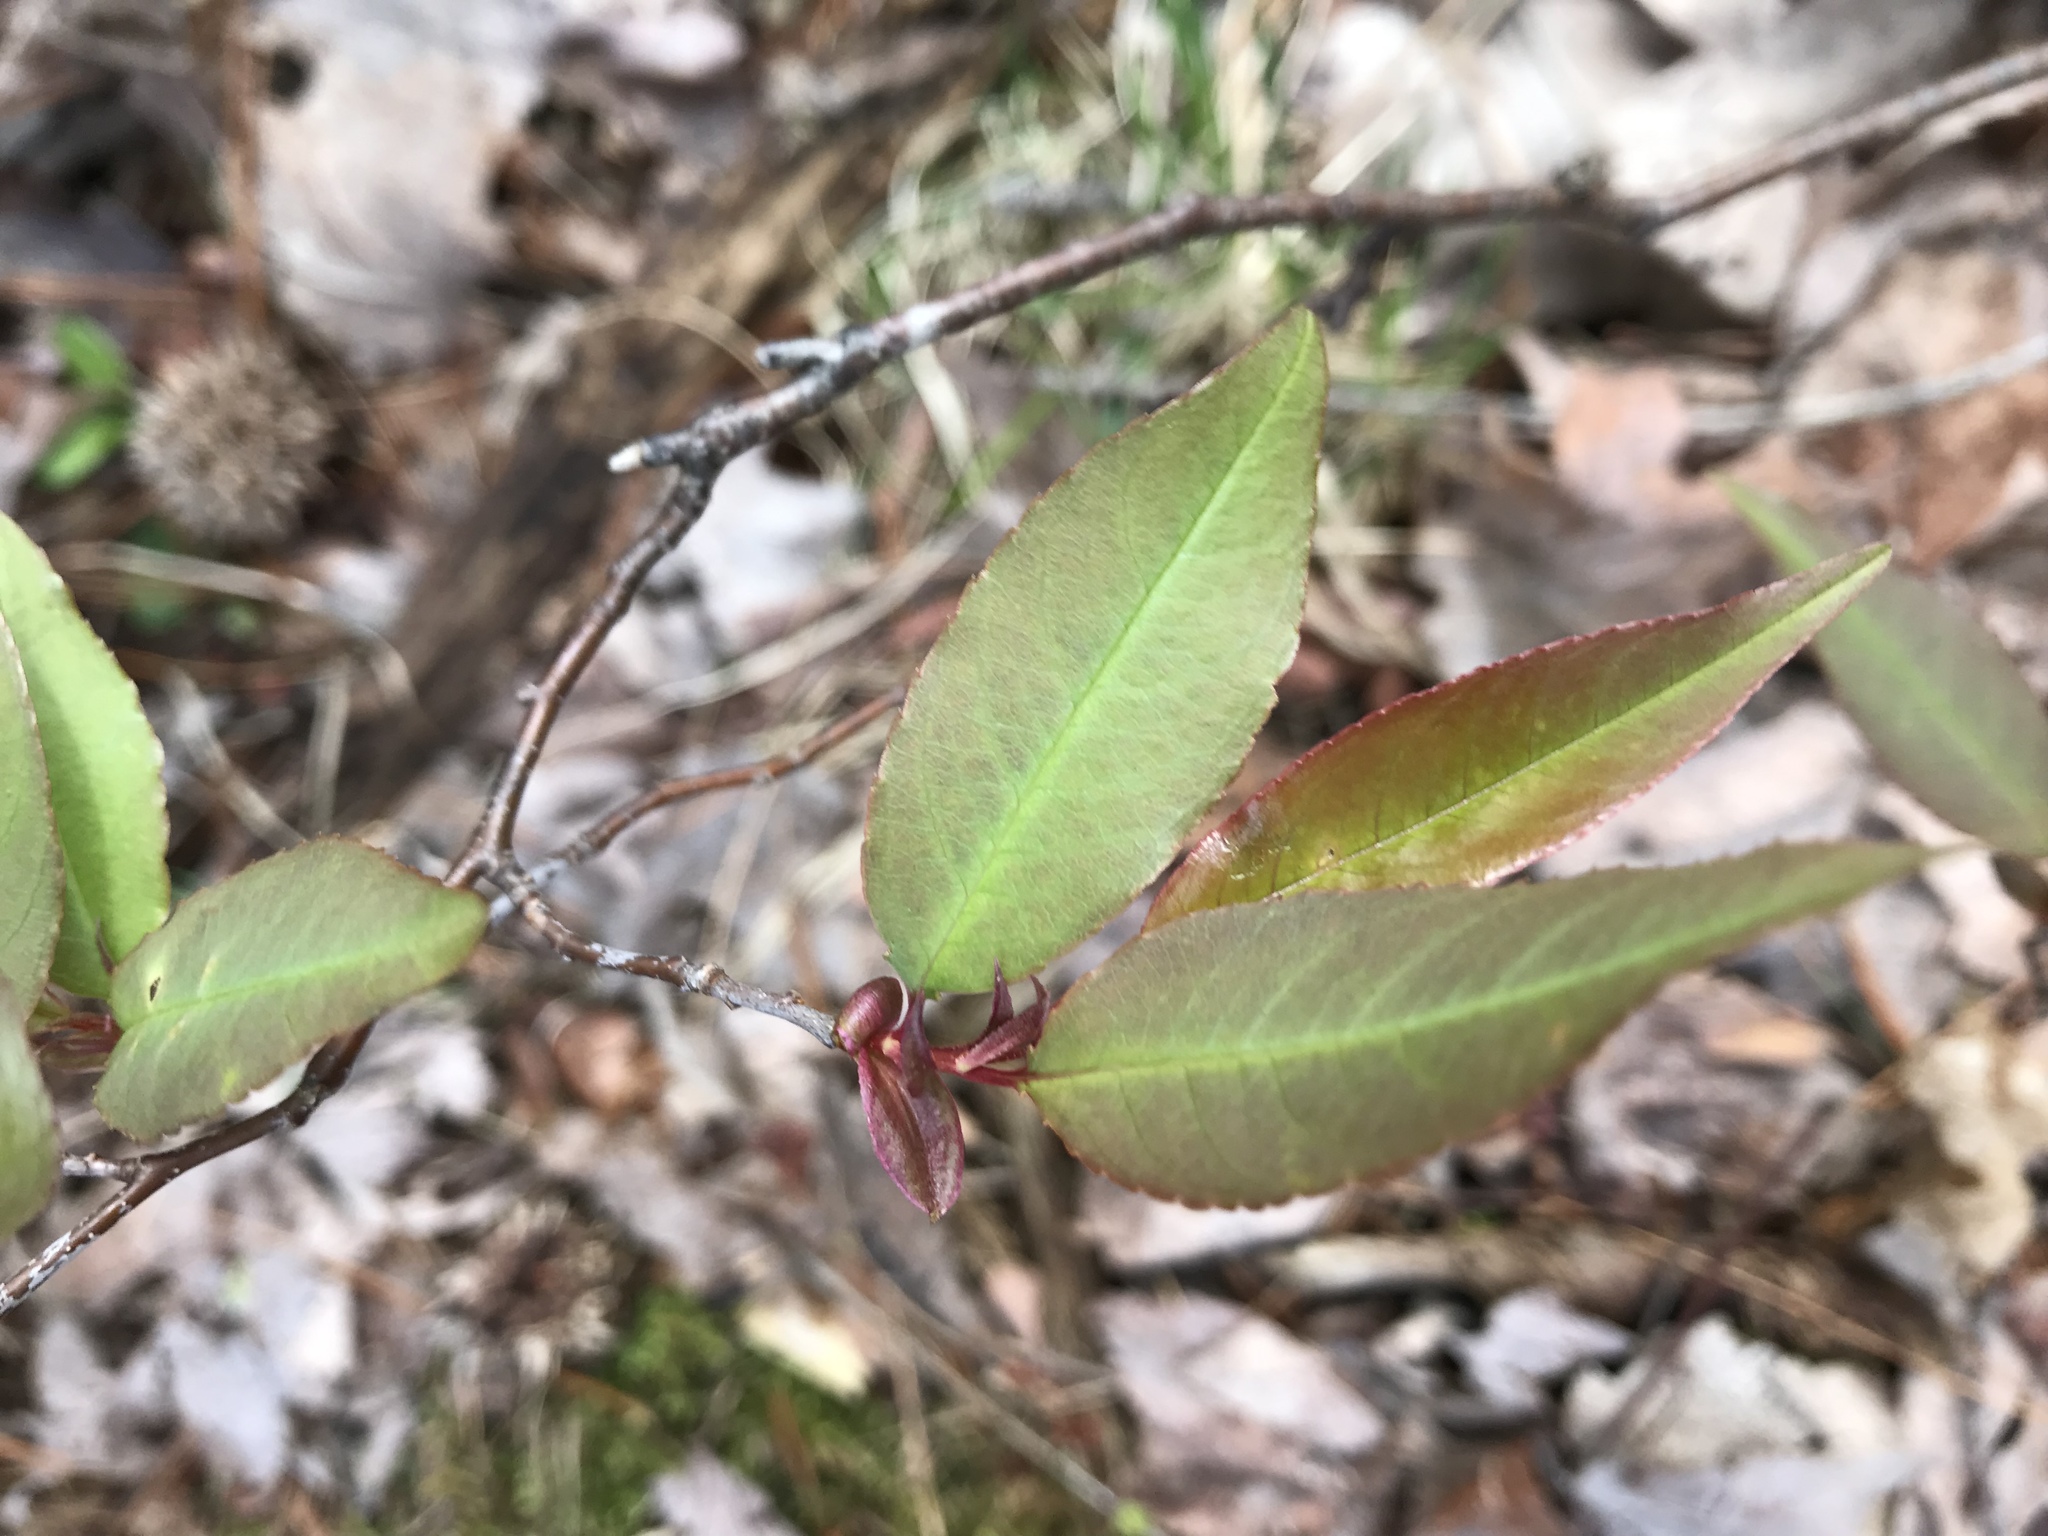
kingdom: Plantae
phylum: Tracheophyta
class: Magnoliopsida
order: Rosales
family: Rosaceae
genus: Prunus
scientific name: Prunus serotina
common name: Black cherry
